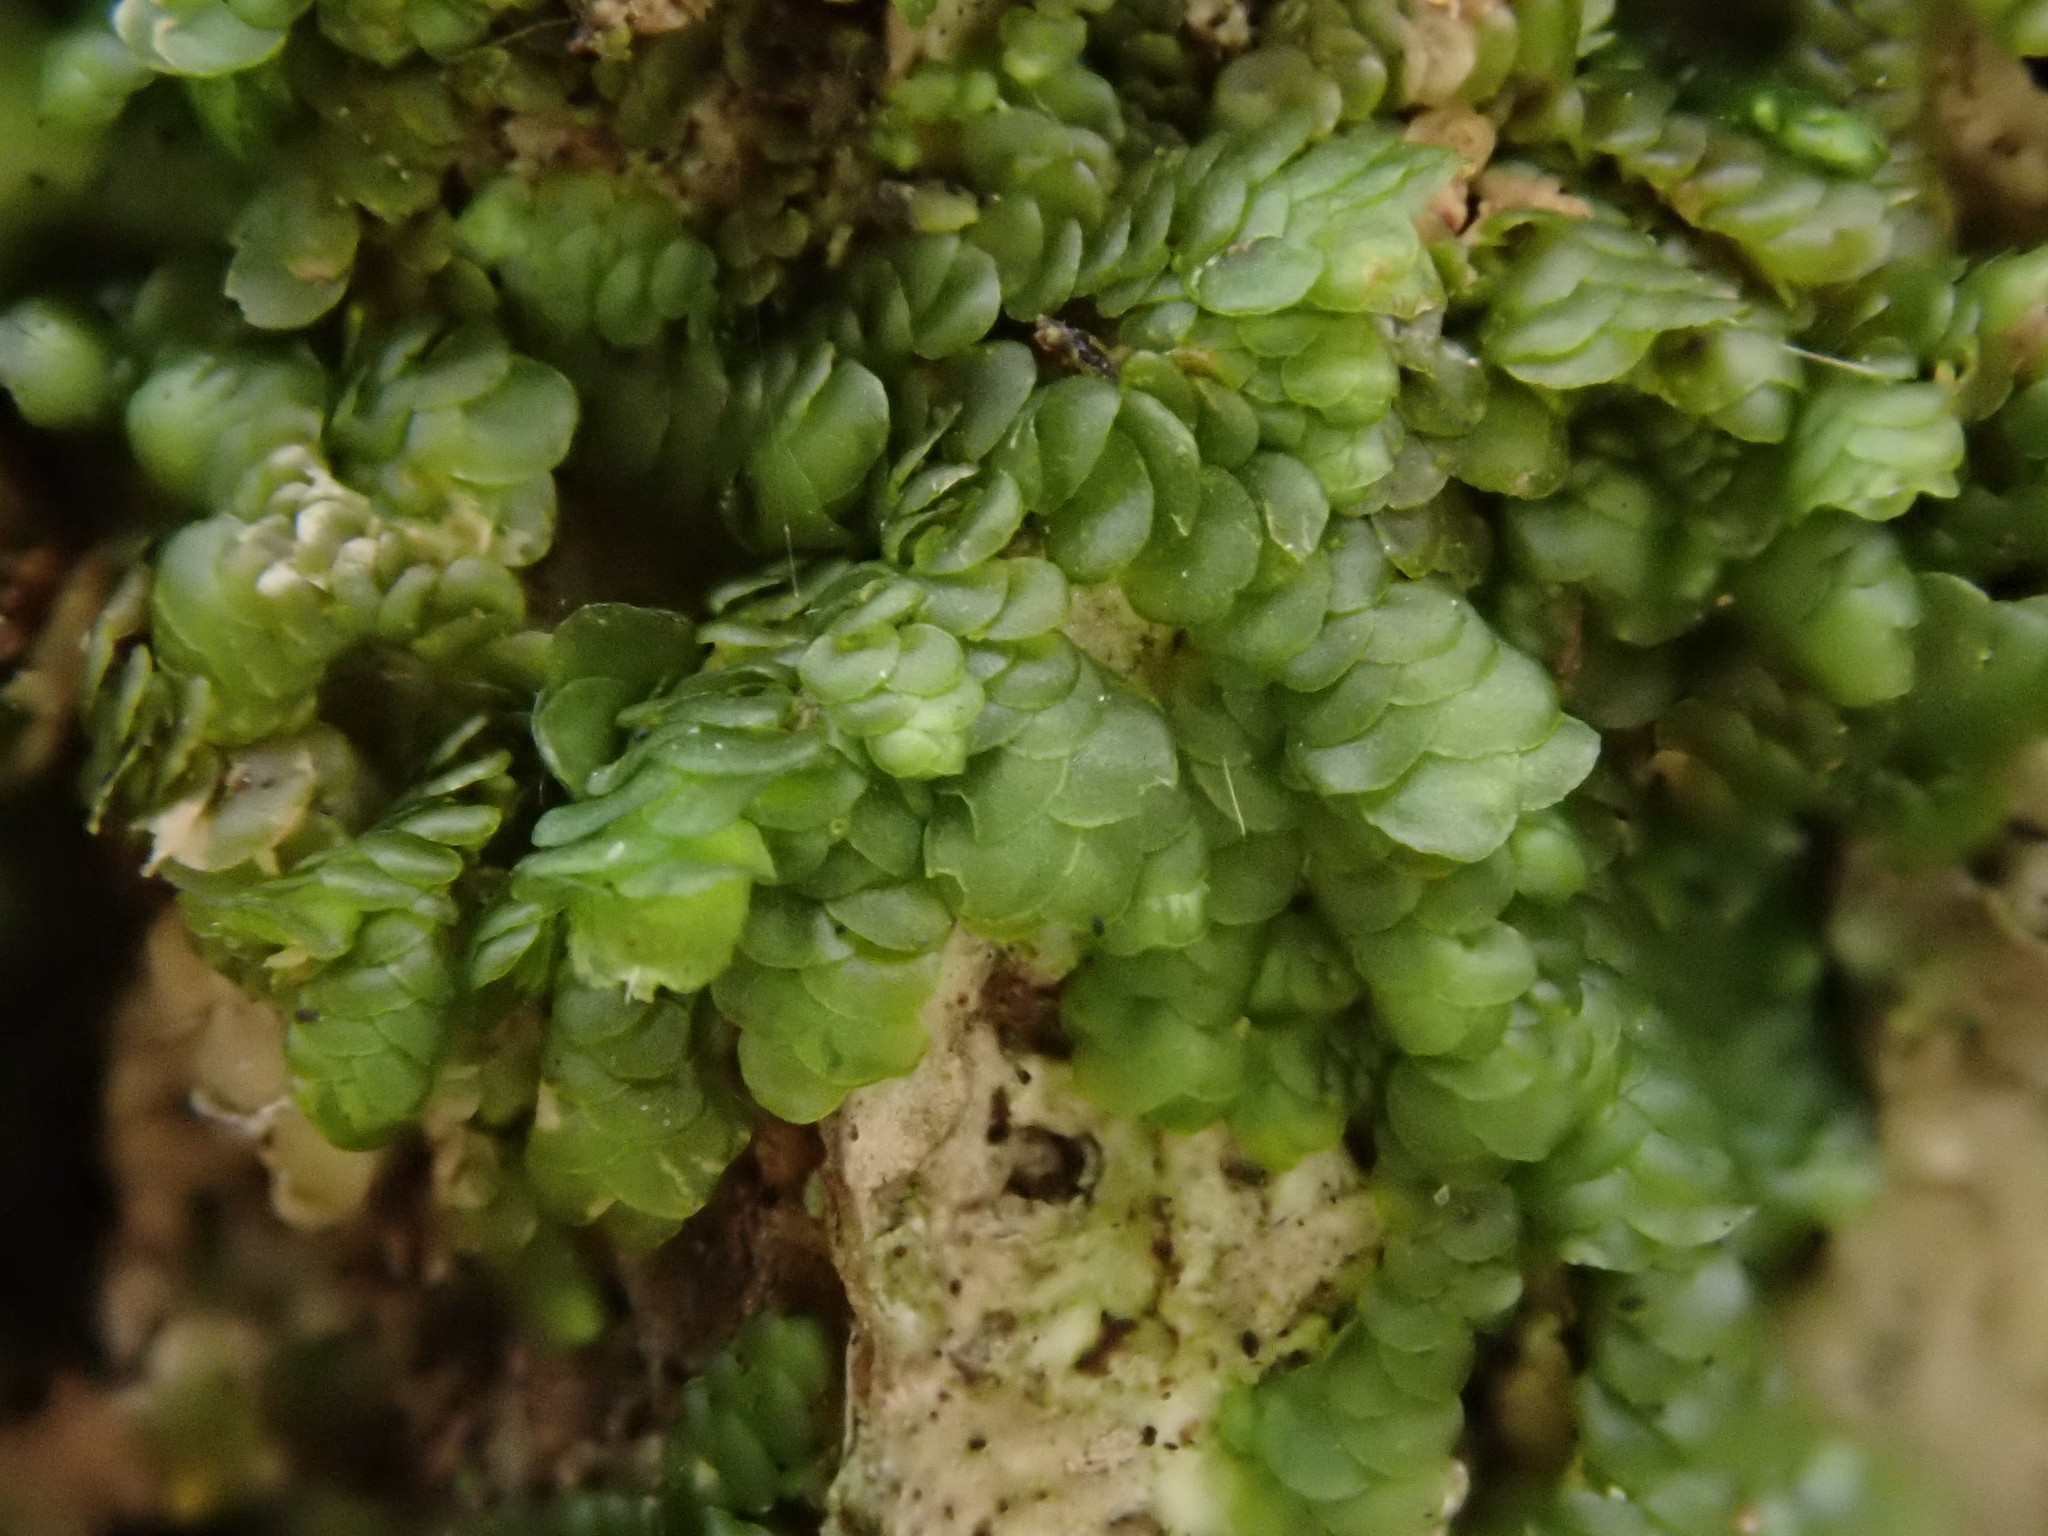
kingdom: Plantae
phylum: Marchantiophyta
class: Jungermanniopsida
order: Porellales
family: Frullaniaceae
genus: Frullania
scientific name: Frullania dilatata
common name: Dilated scalewort
